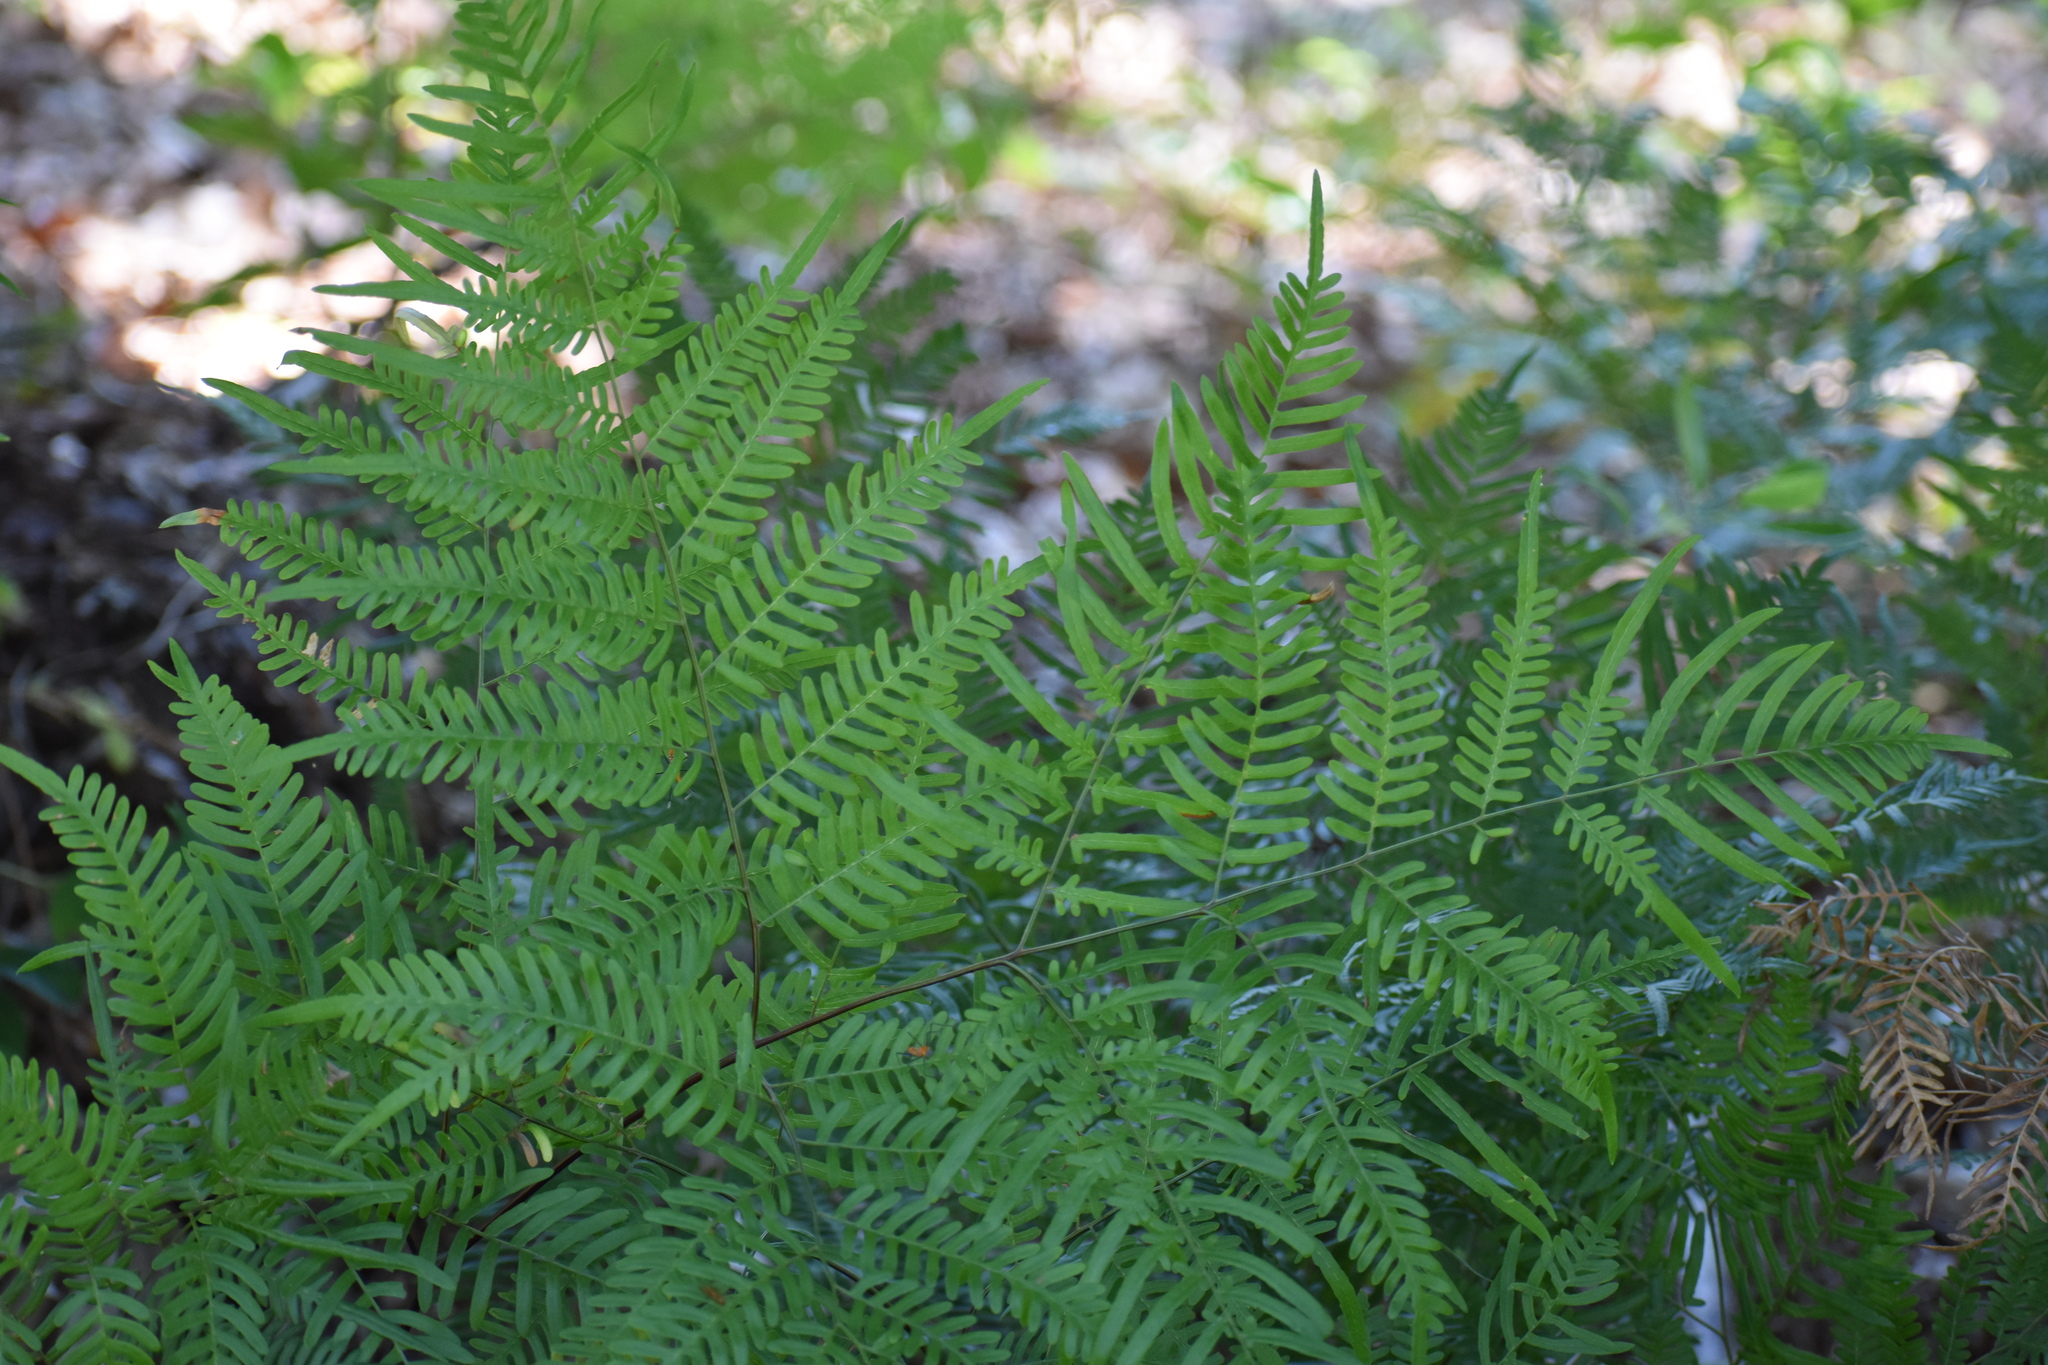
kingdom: Plantae
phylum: Tracheophyta
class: Polypodiopsida
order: Polypodiales
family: Dennstaedtiaceae
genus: Pteridium
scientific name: Pteridium aquilinum
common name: Bracken
